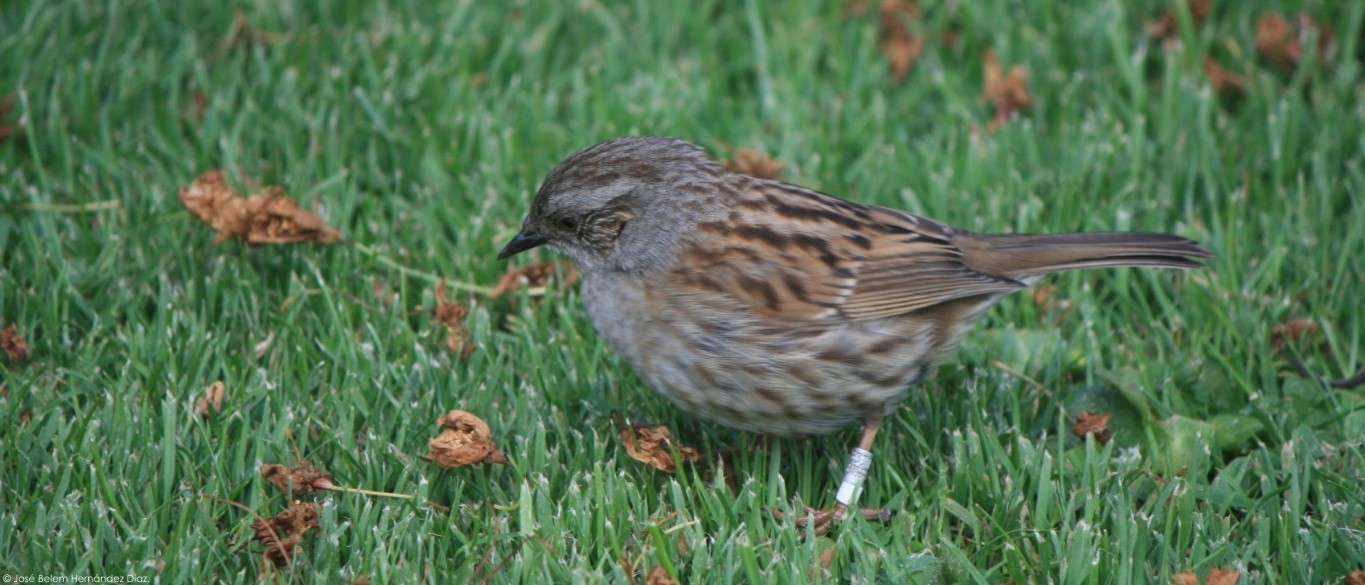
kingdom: Animalia
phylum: Chordata
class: Aves
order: Passeriformes
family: Prunellidae
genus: Prunella
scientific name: Prunella modularis
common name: Dunnock
